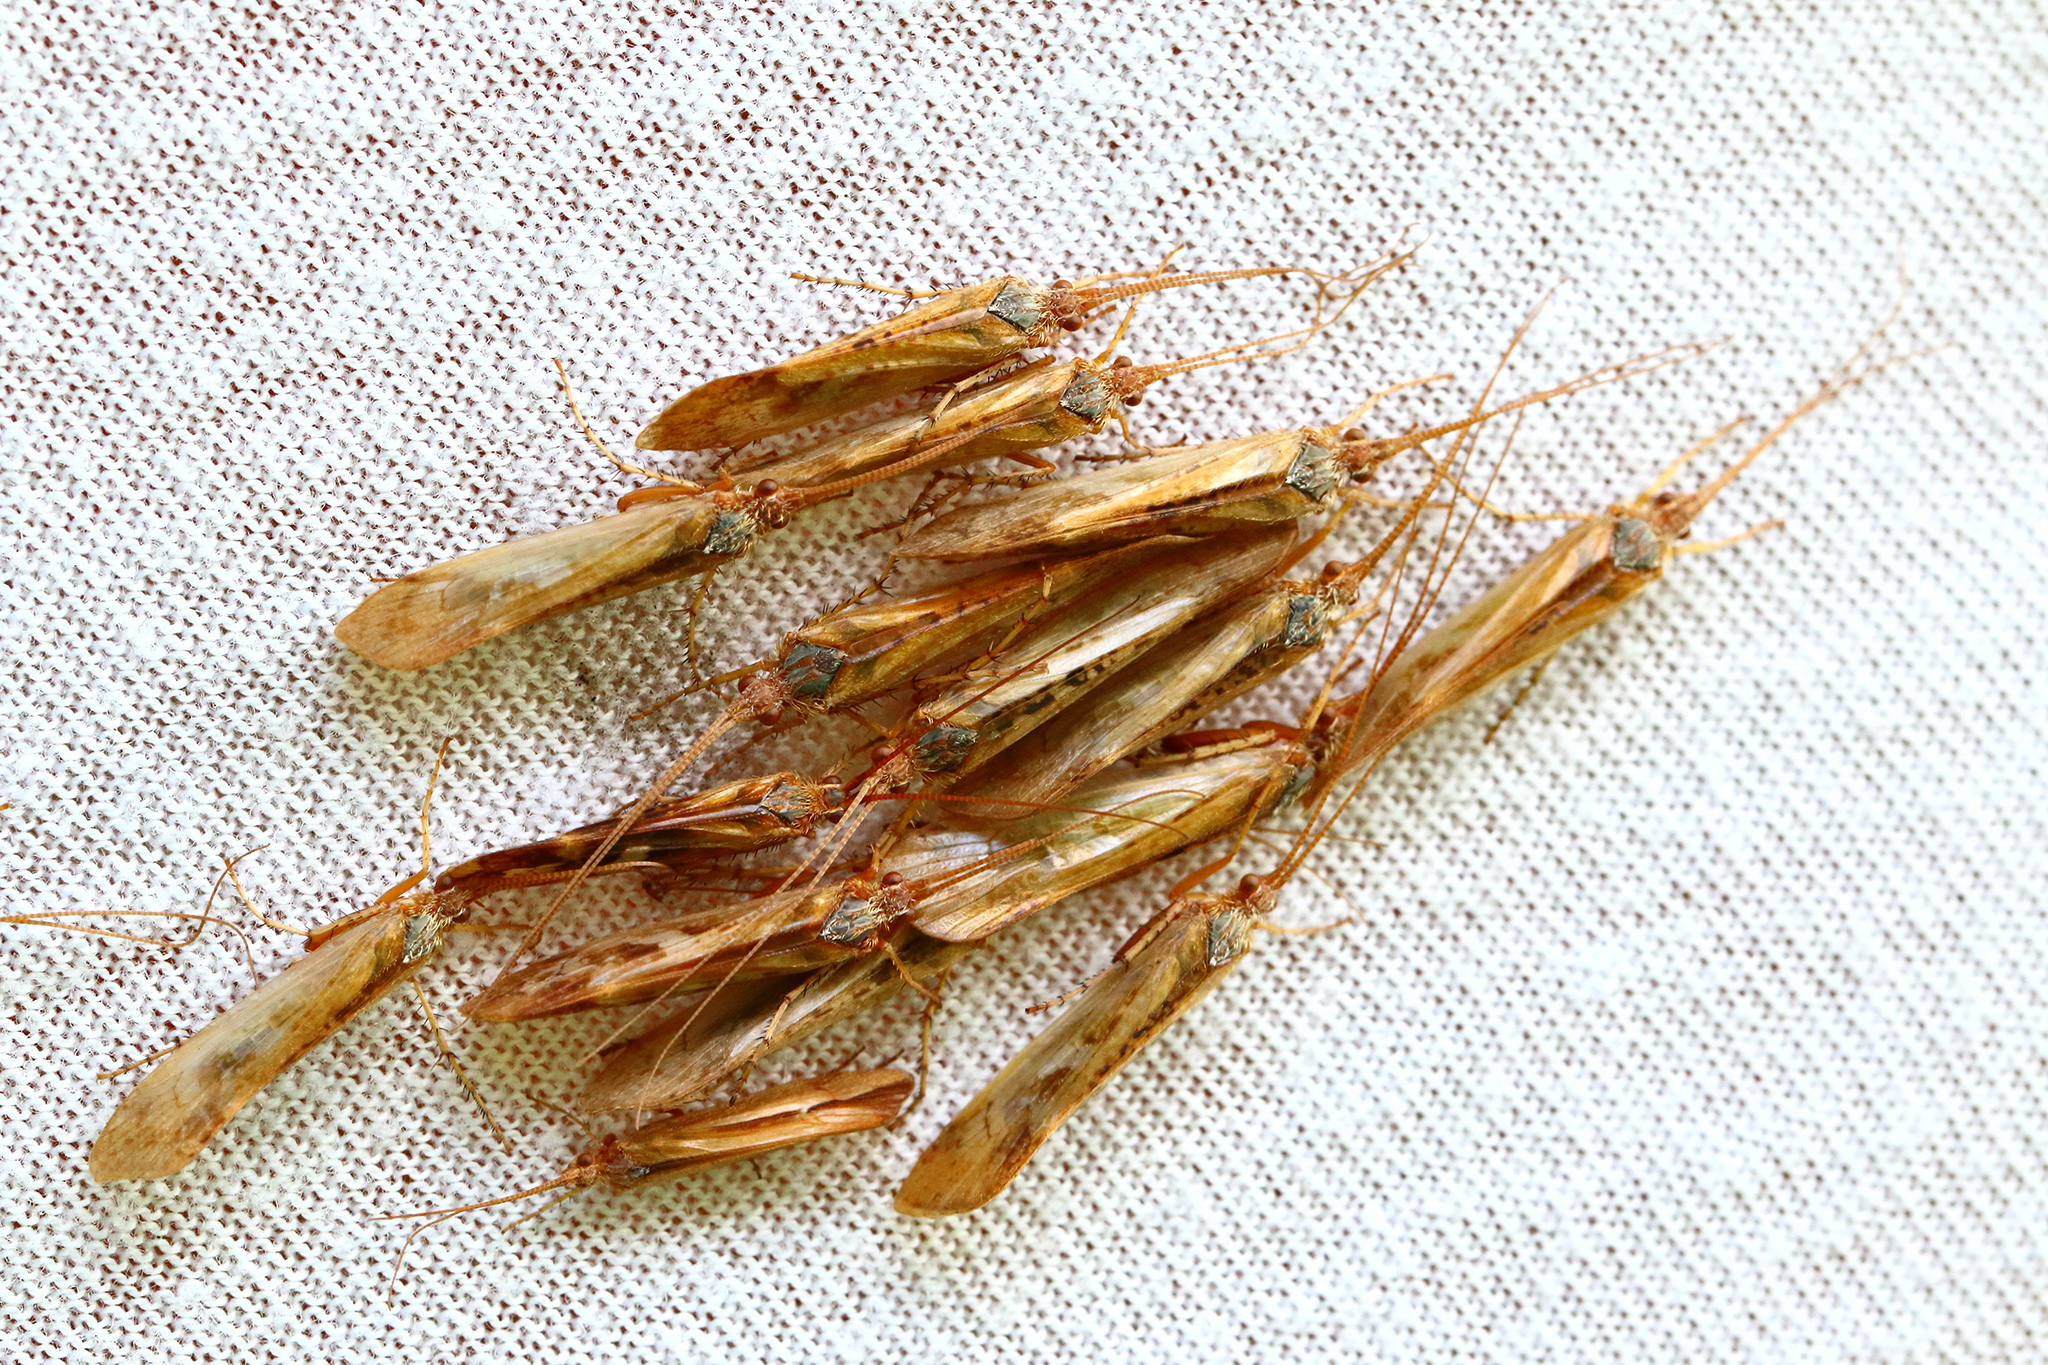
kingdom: Animalia
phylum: Arthropoda
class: Insecta
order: Trichoptera
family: Limnephilidae
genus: Limnephilus
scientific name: Limnephilus flavicornis
